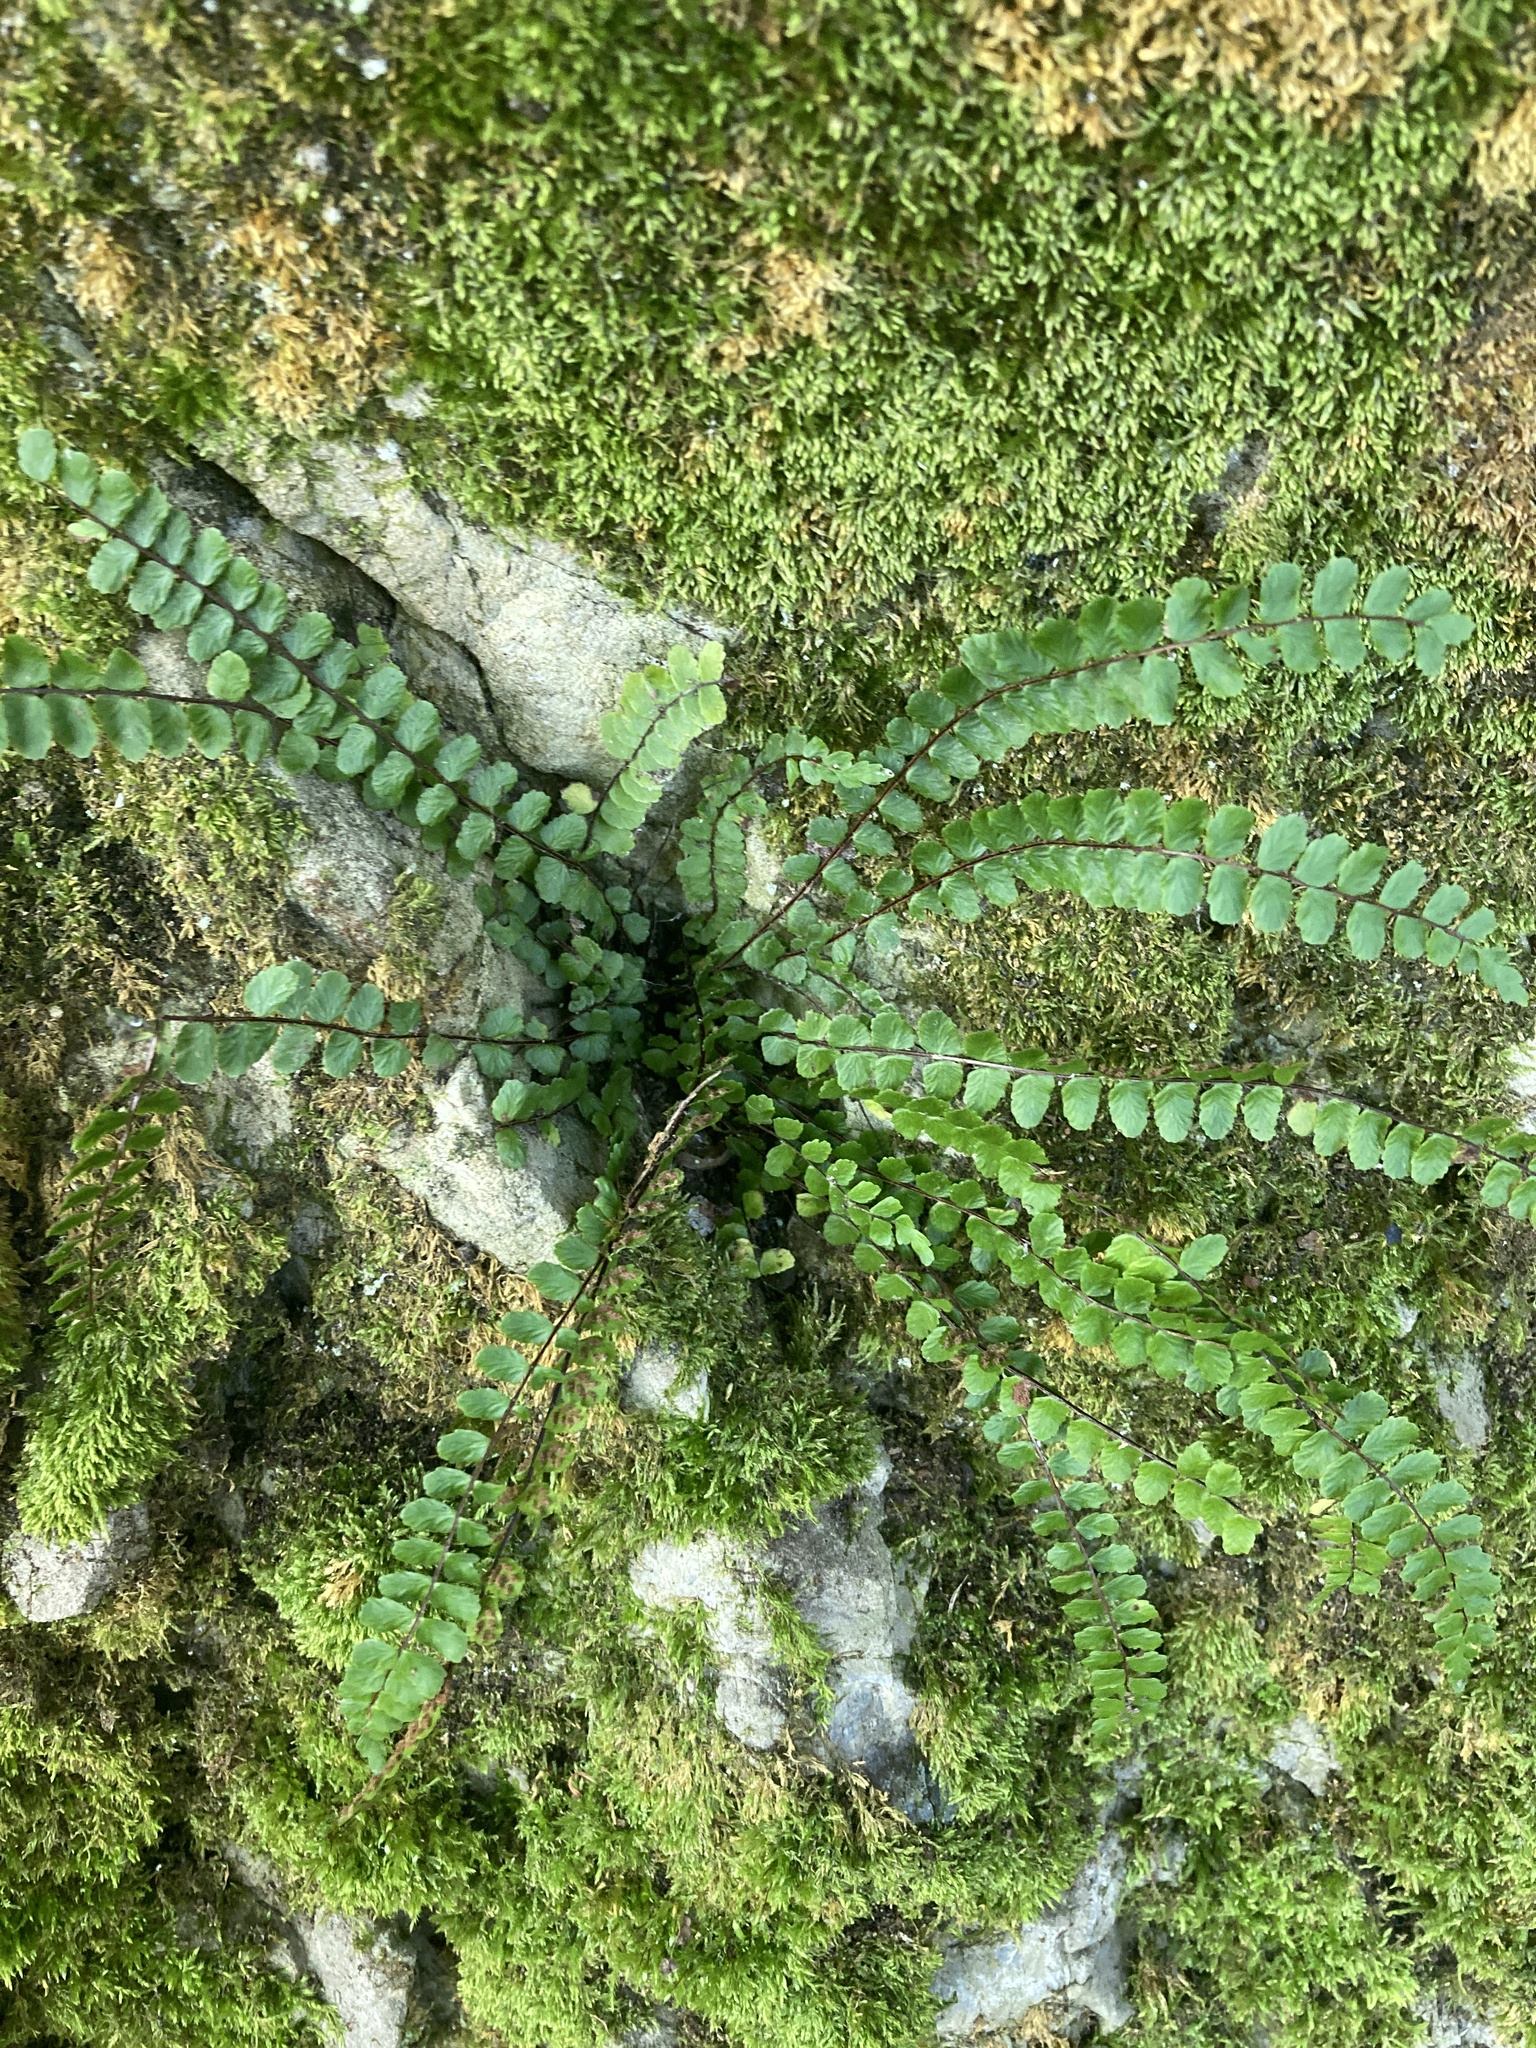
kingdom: Plantae
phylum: Tracheophyta
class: Polypodiopsida
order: Polypodiales
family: Aspleniaceae
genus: Asplenium
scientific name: Asplenium trichomanes
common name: Maidenhair spleenwort
